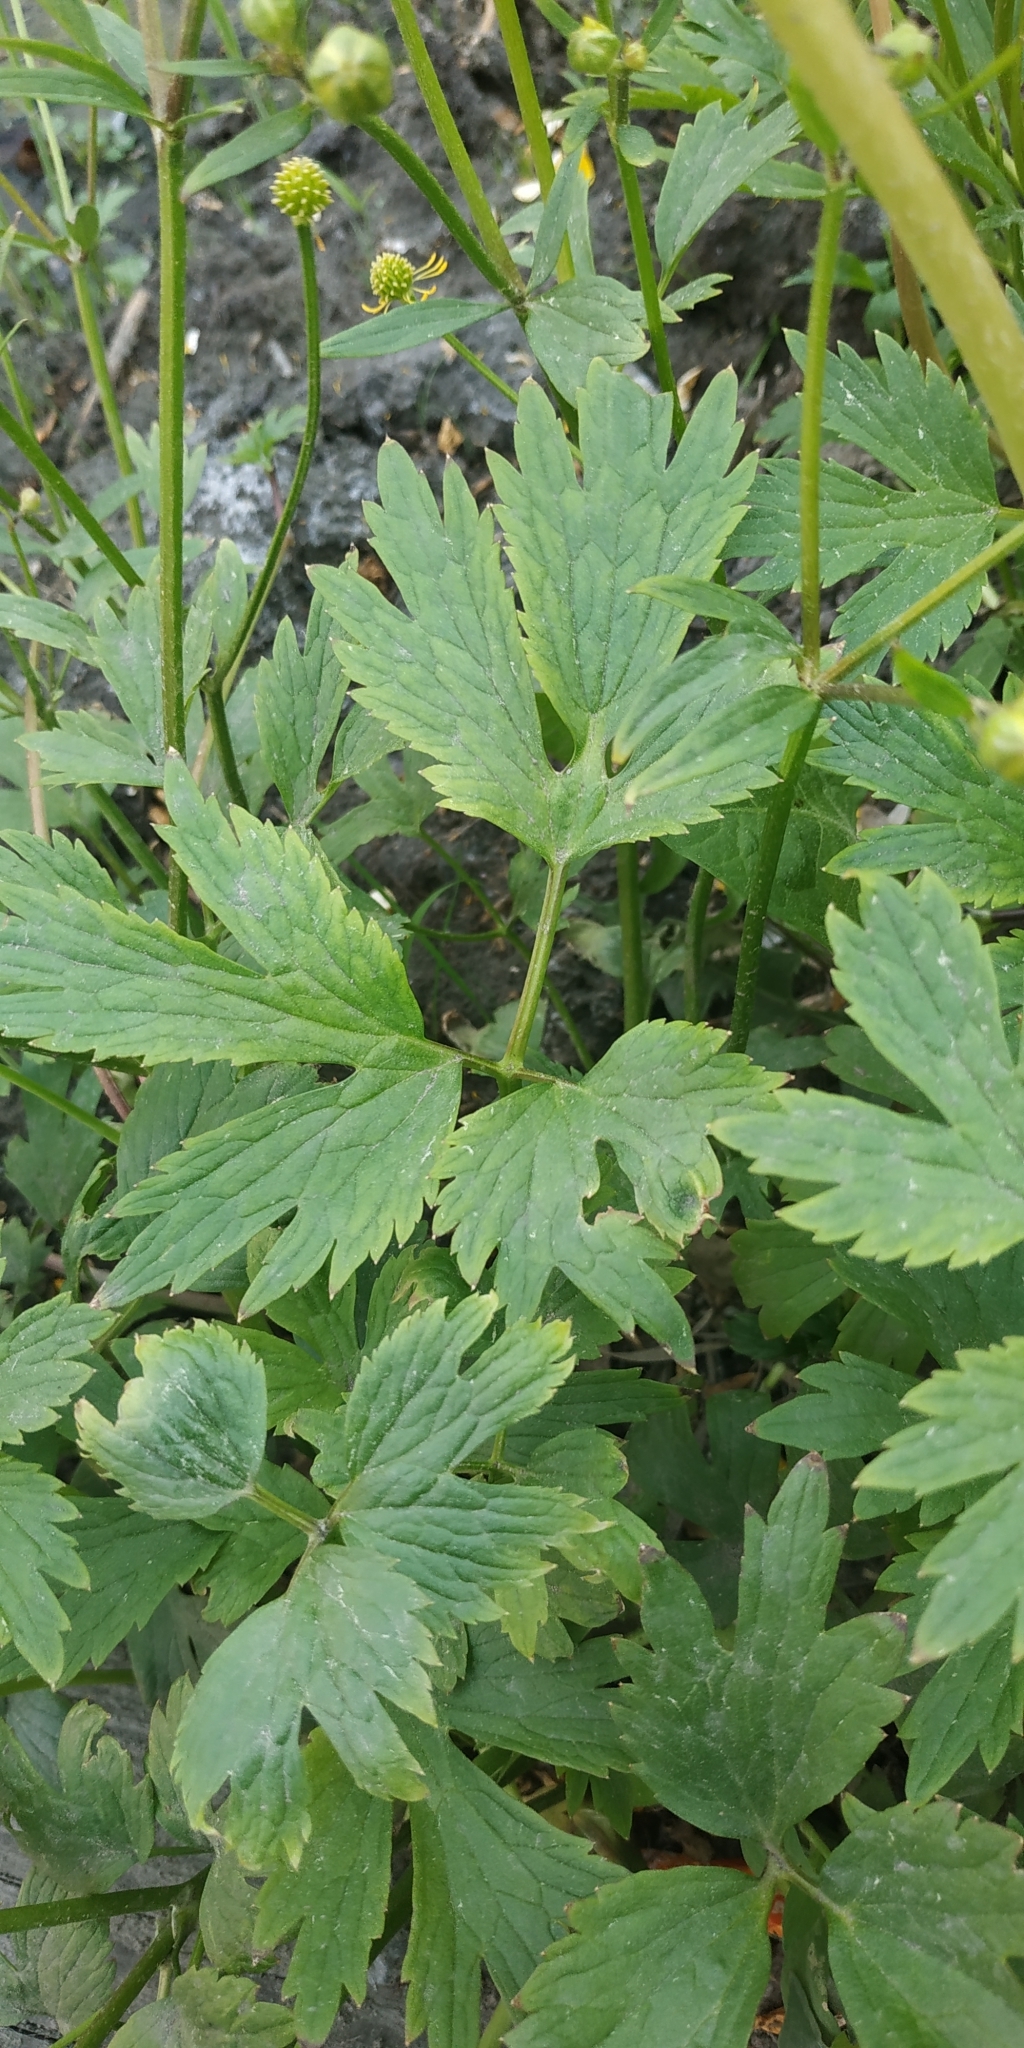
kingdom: Plantae
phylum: Tracheophyta
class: Magnoliopsida
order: Ranunculales
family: Ranunculaceae
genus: Ranunculus
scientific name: Ranunculus repens
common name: Creeping buttercup
